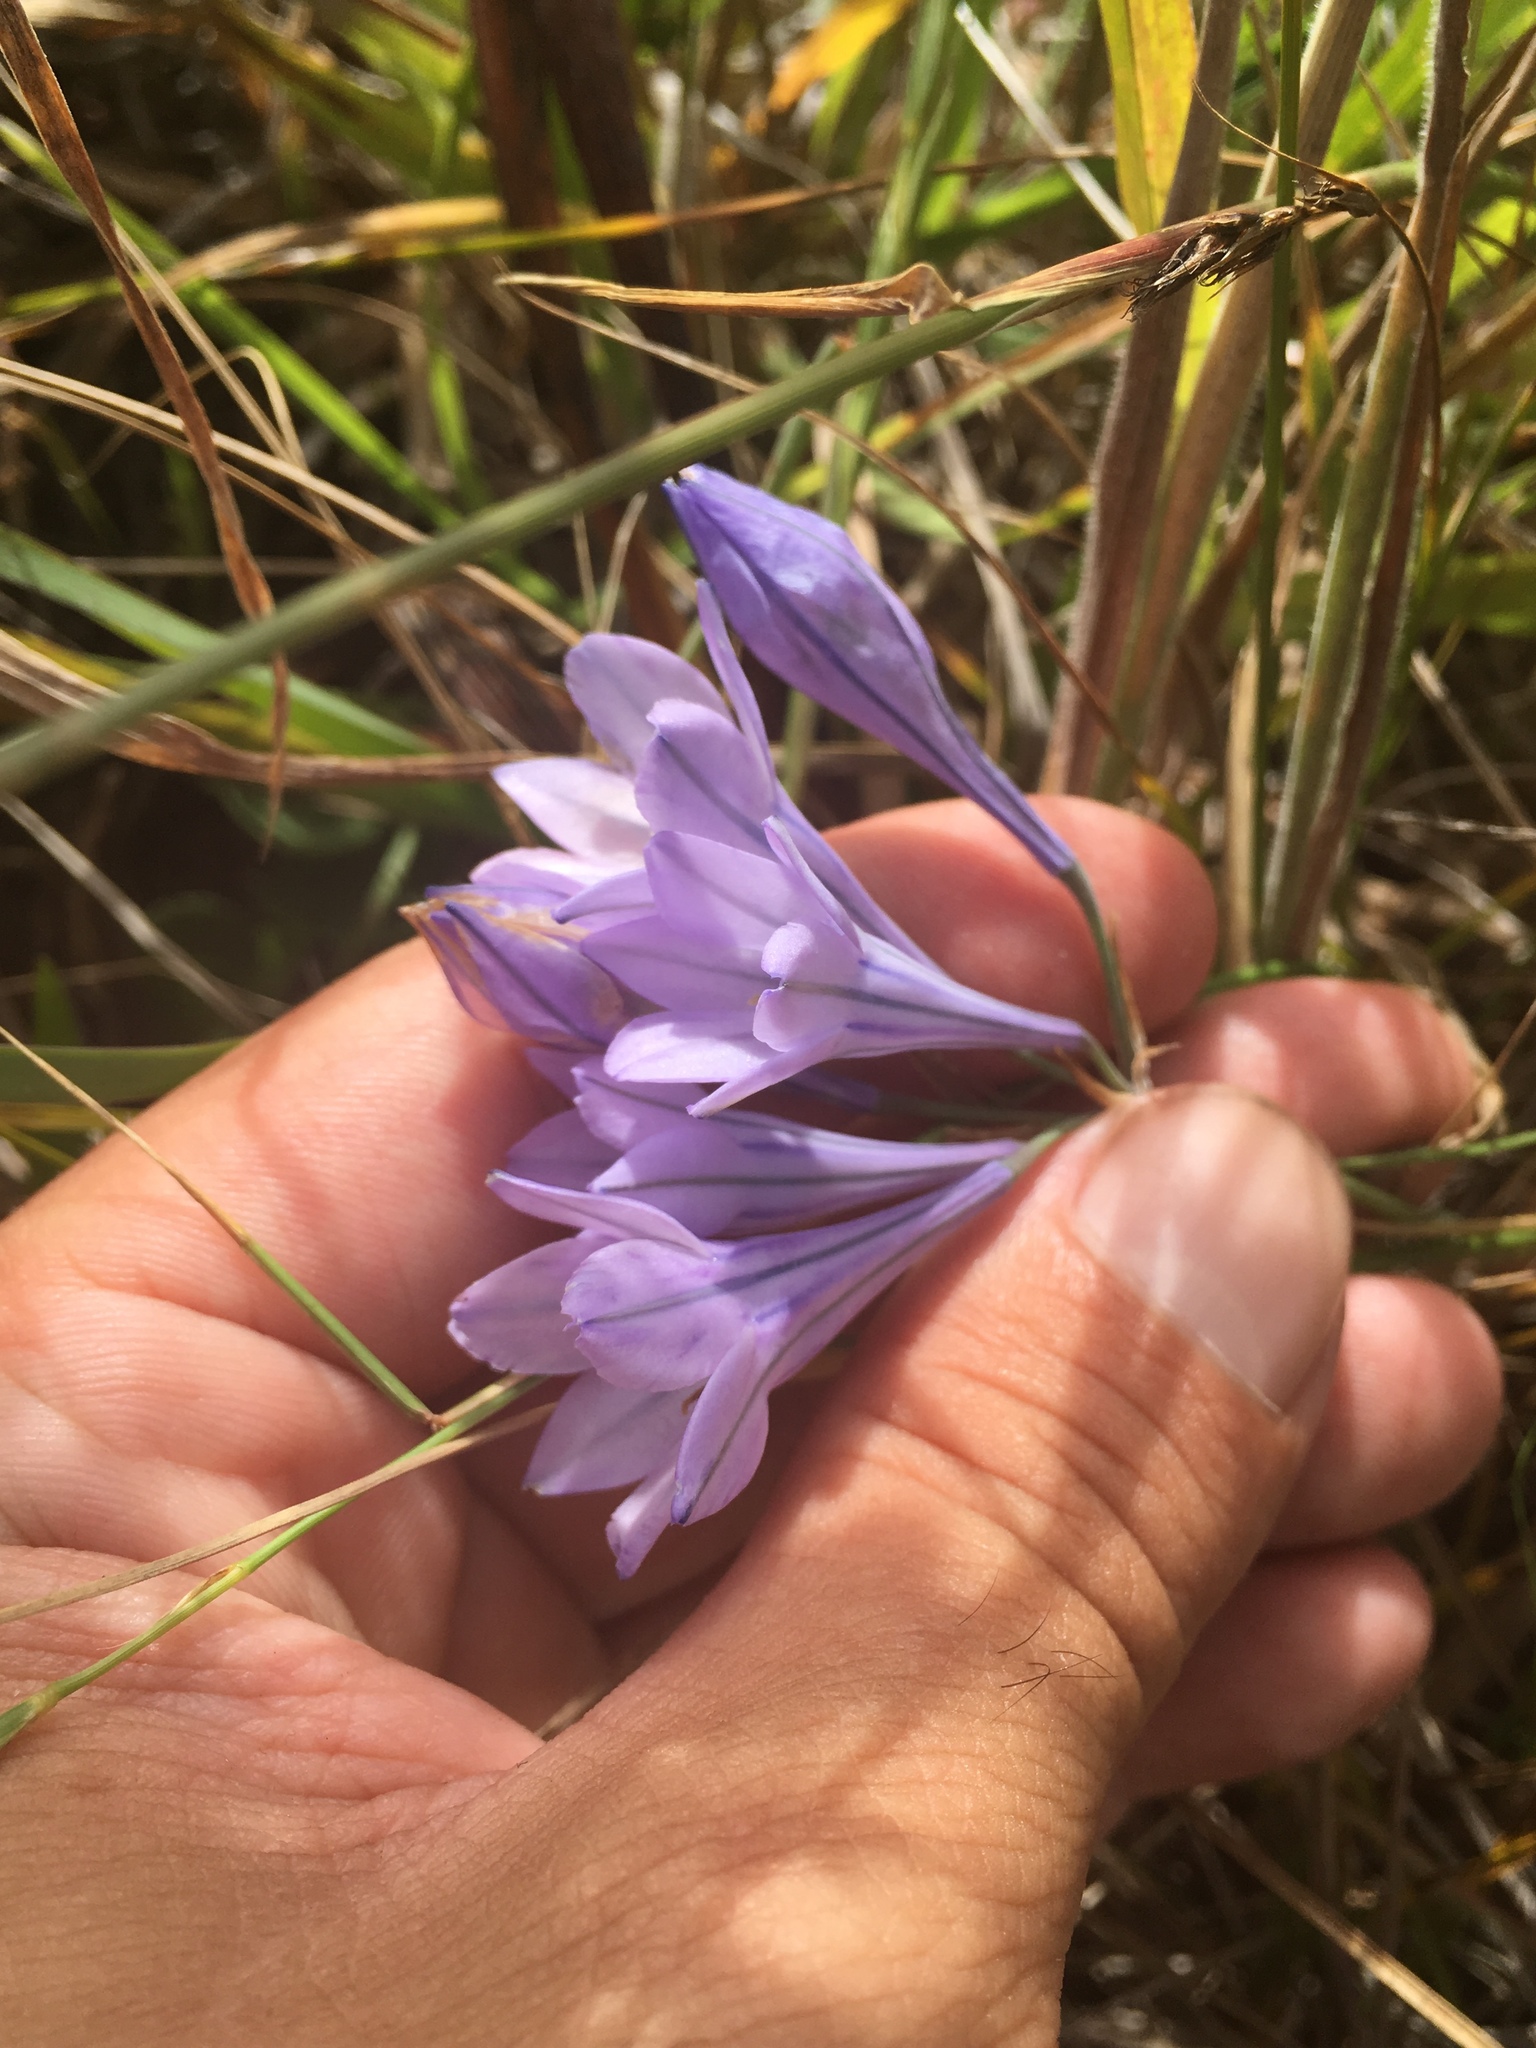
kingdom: Plantae
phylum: Tracheophyta
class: Liliopsida
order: Asparagales
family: Asparagaceae
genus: Triteleia
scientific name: Triteleia laxa
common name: Triplet-lily
